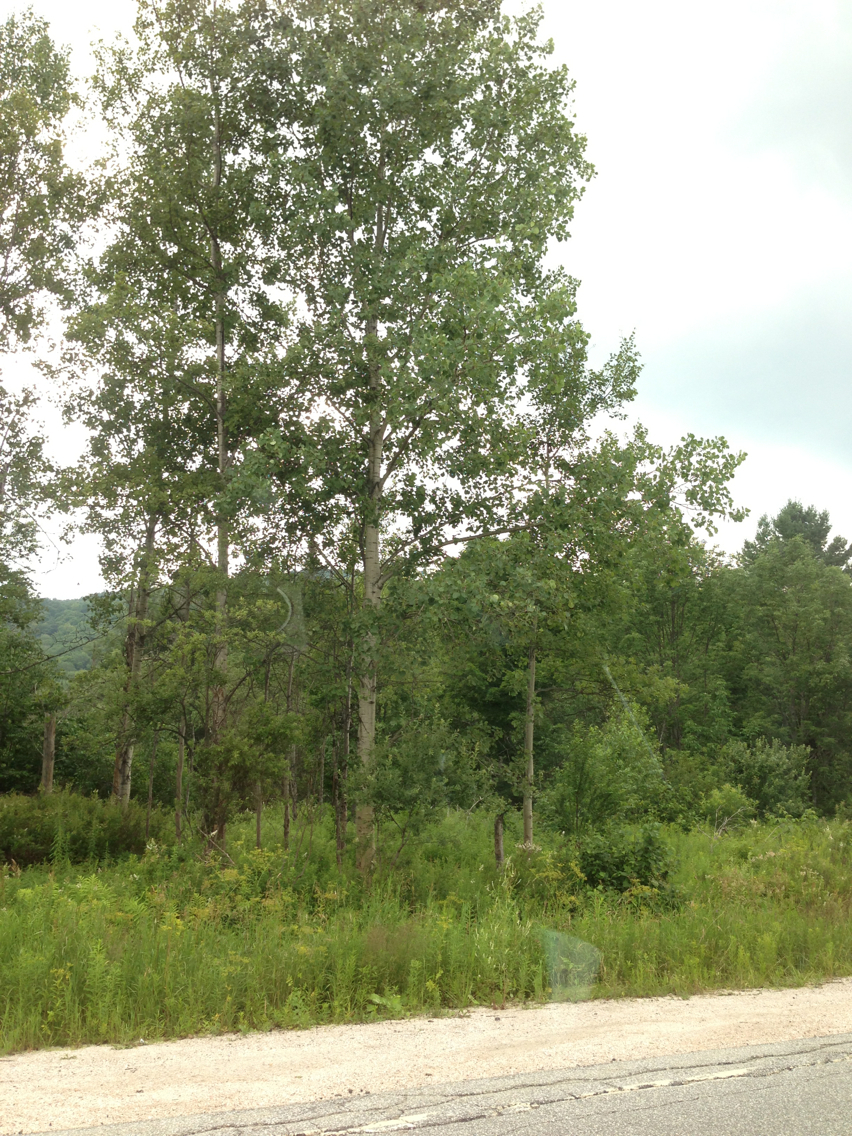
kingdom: Plantae
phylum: Tracheophyta
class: Magnoliopsida
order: Malpighiales
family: Salicaceae
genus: Populus
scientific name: Populus tremuloides
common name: Quaking aspen
